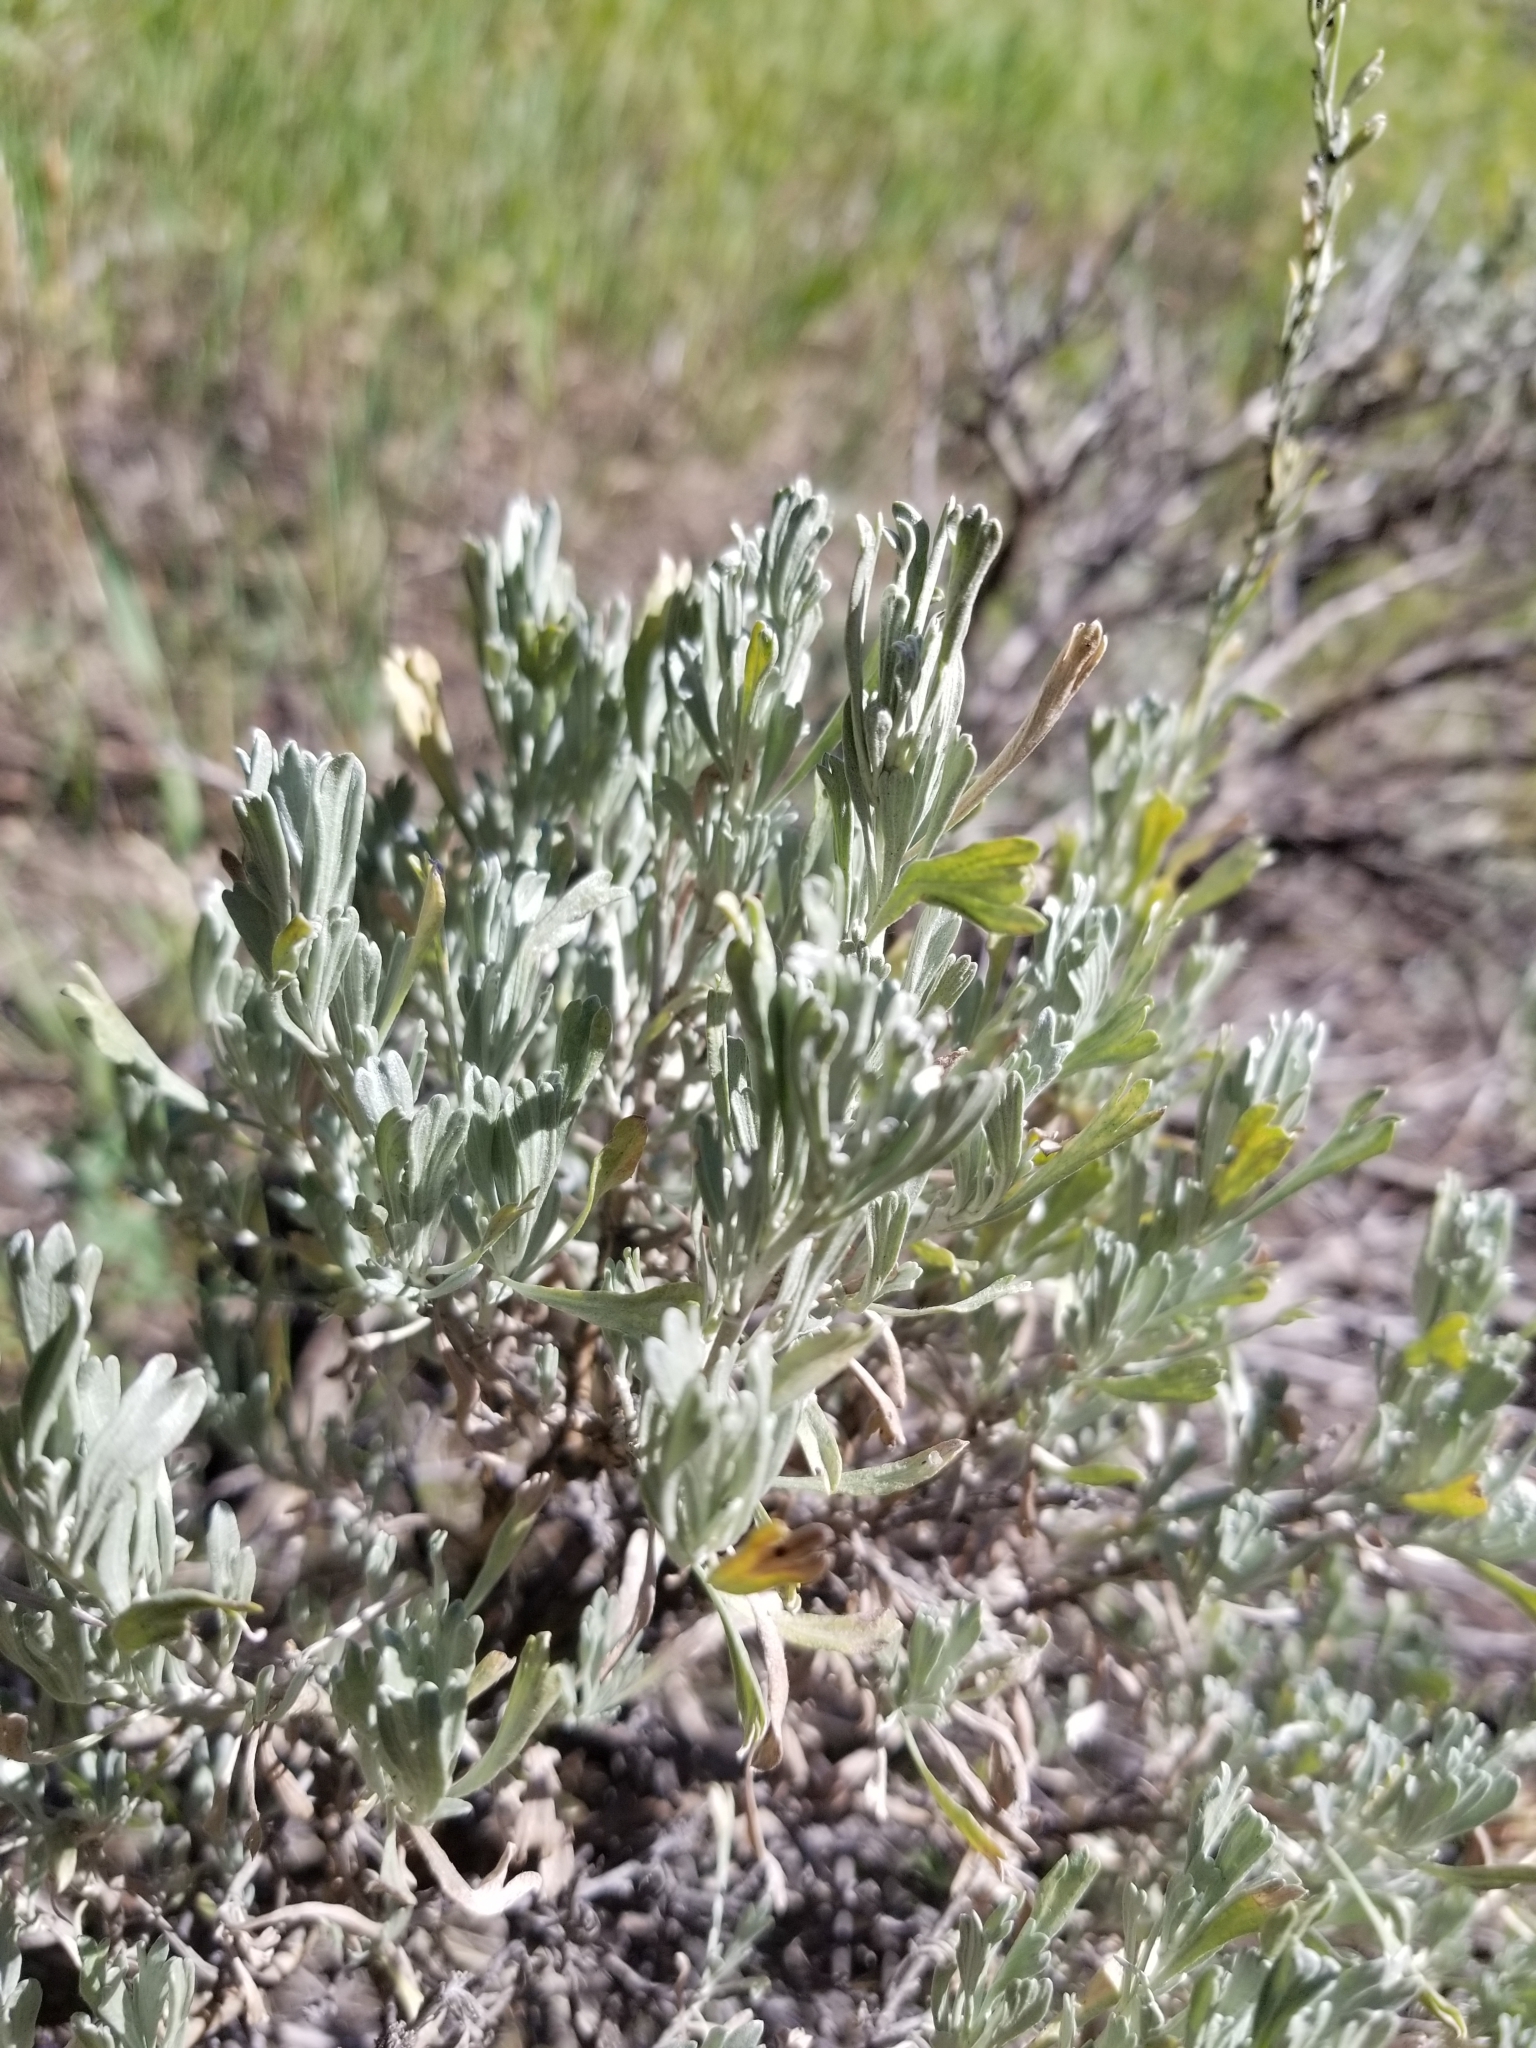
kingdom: Plantae
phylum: Tracheophyta
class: Magnoliopsida
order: Asterales
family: Asteraceae
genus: Artemisia
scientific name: Artemisia tridentata
